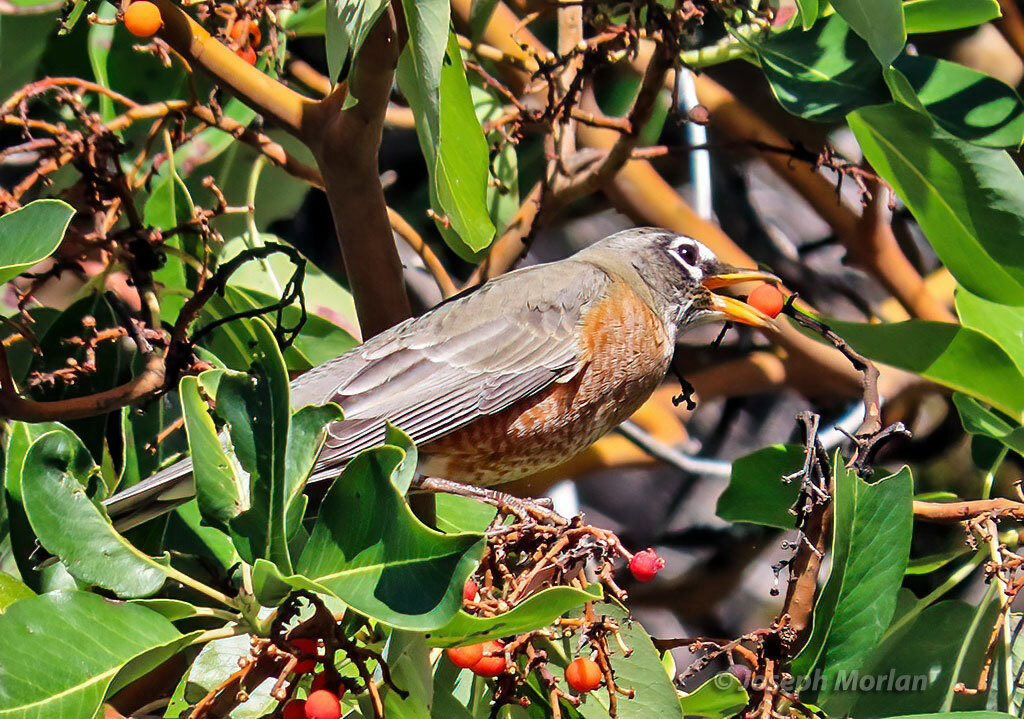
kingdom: Animalia
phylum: Chordata
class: Aves
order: Passeriformes
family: Turdidae
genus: Turdus
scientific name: Turdus migratorius
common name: American robin
